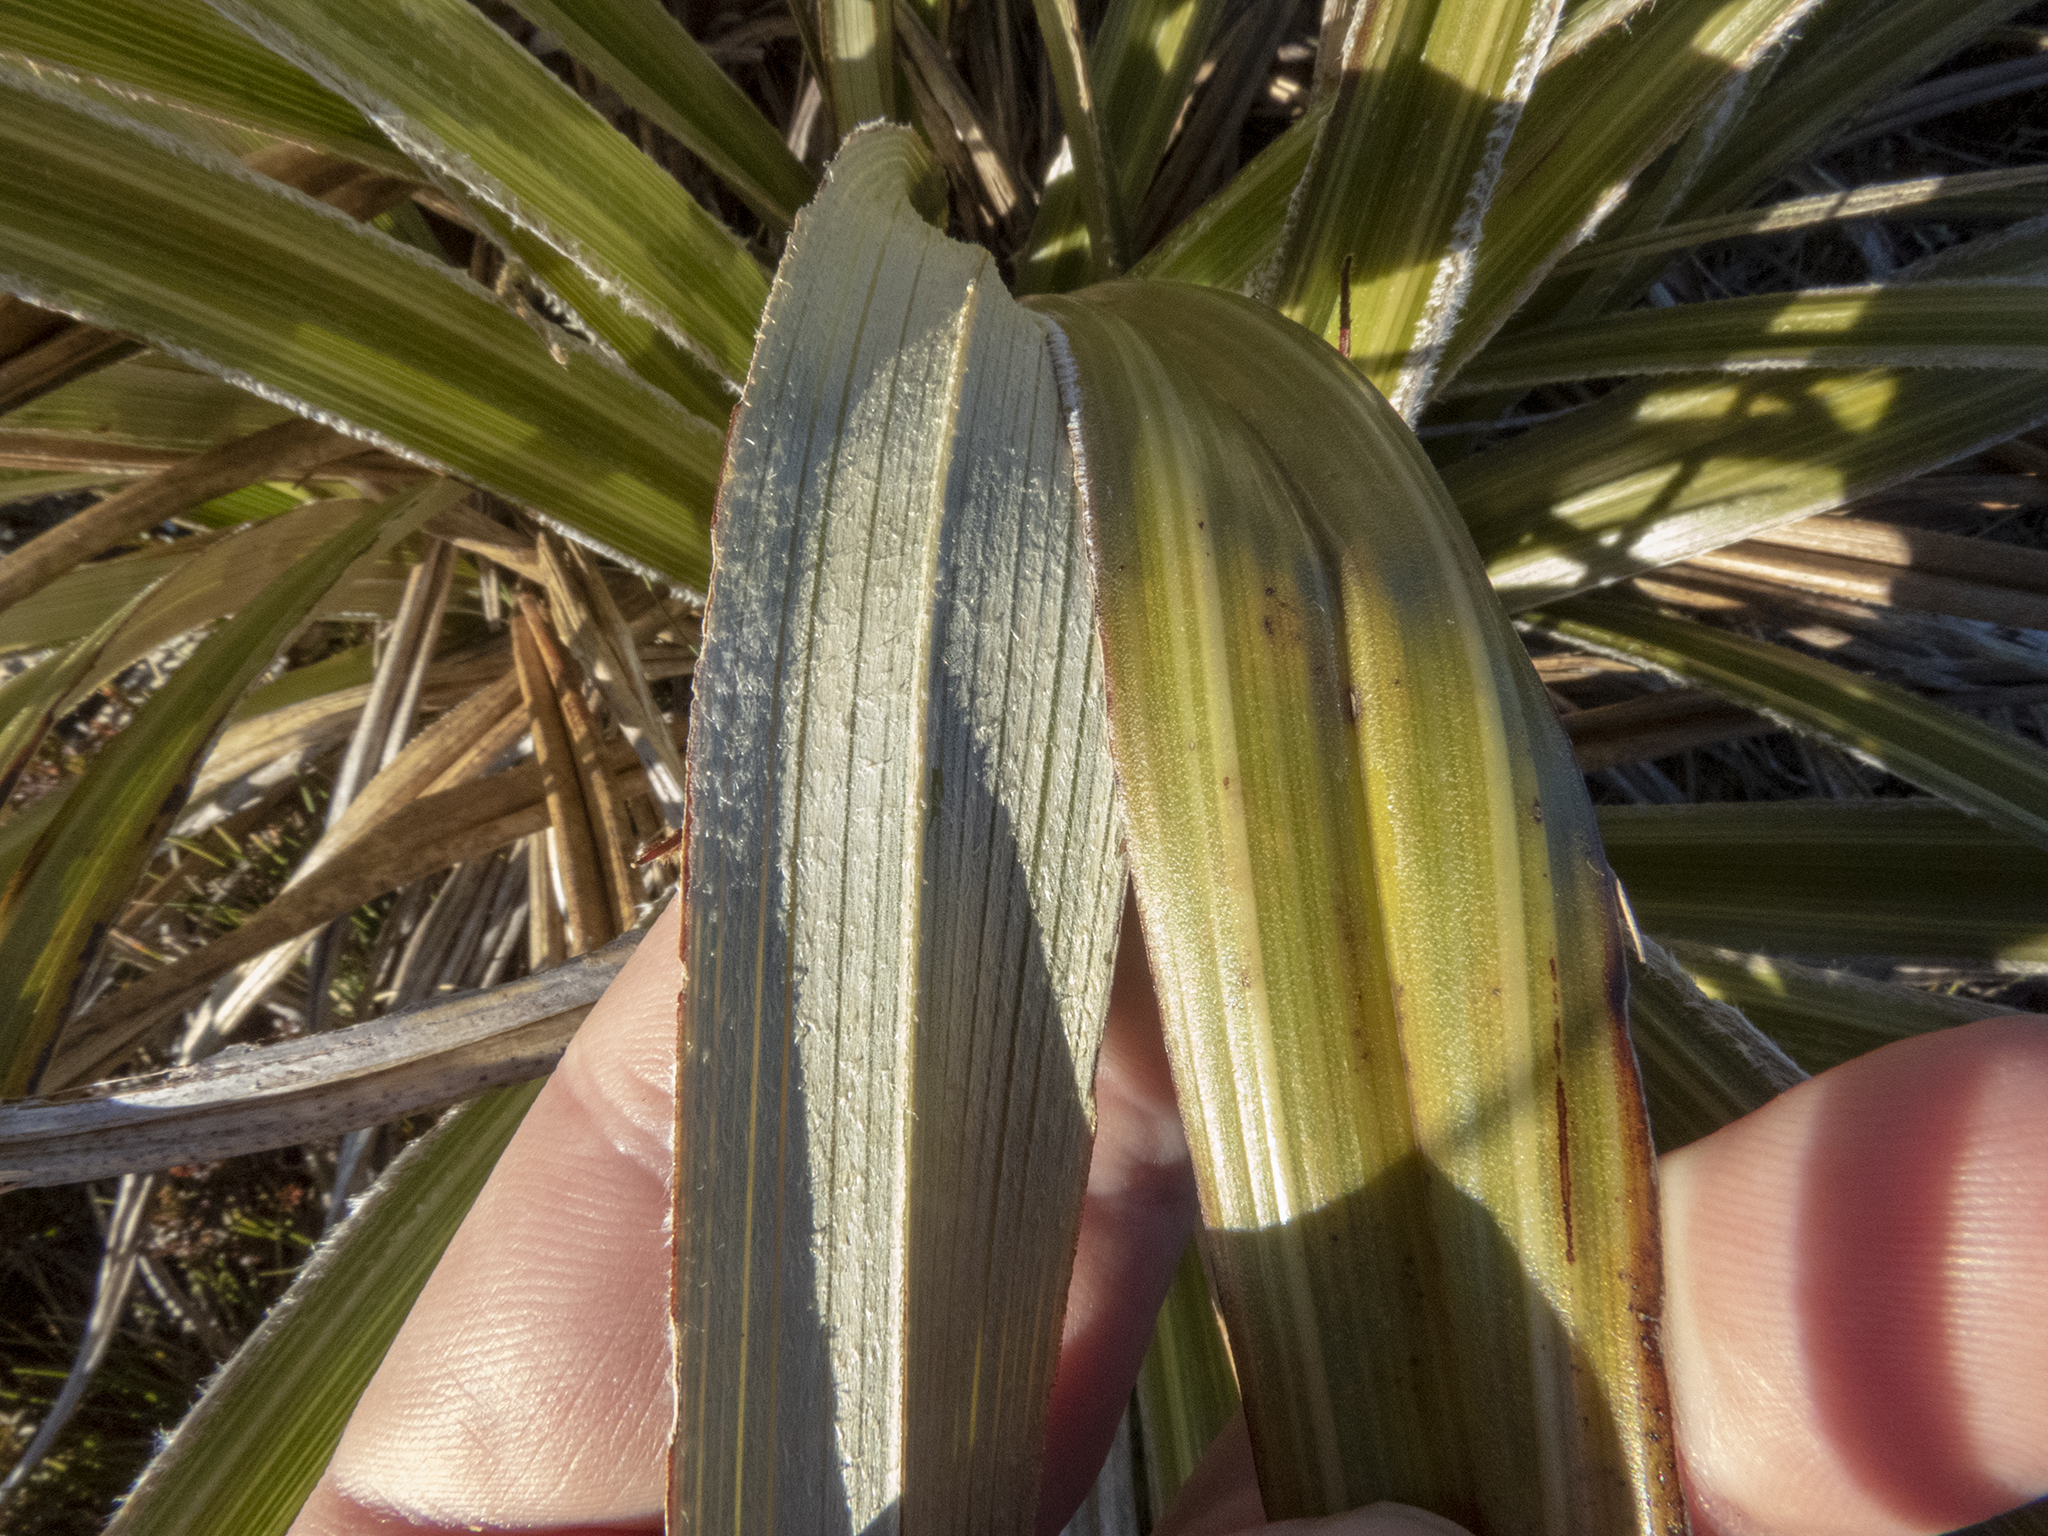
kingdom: Plantae
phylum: Tracheophyta
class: Liliopsida
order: Asparagales
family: Asteliaceae
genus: Astelia
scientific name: Astelia nervosa
